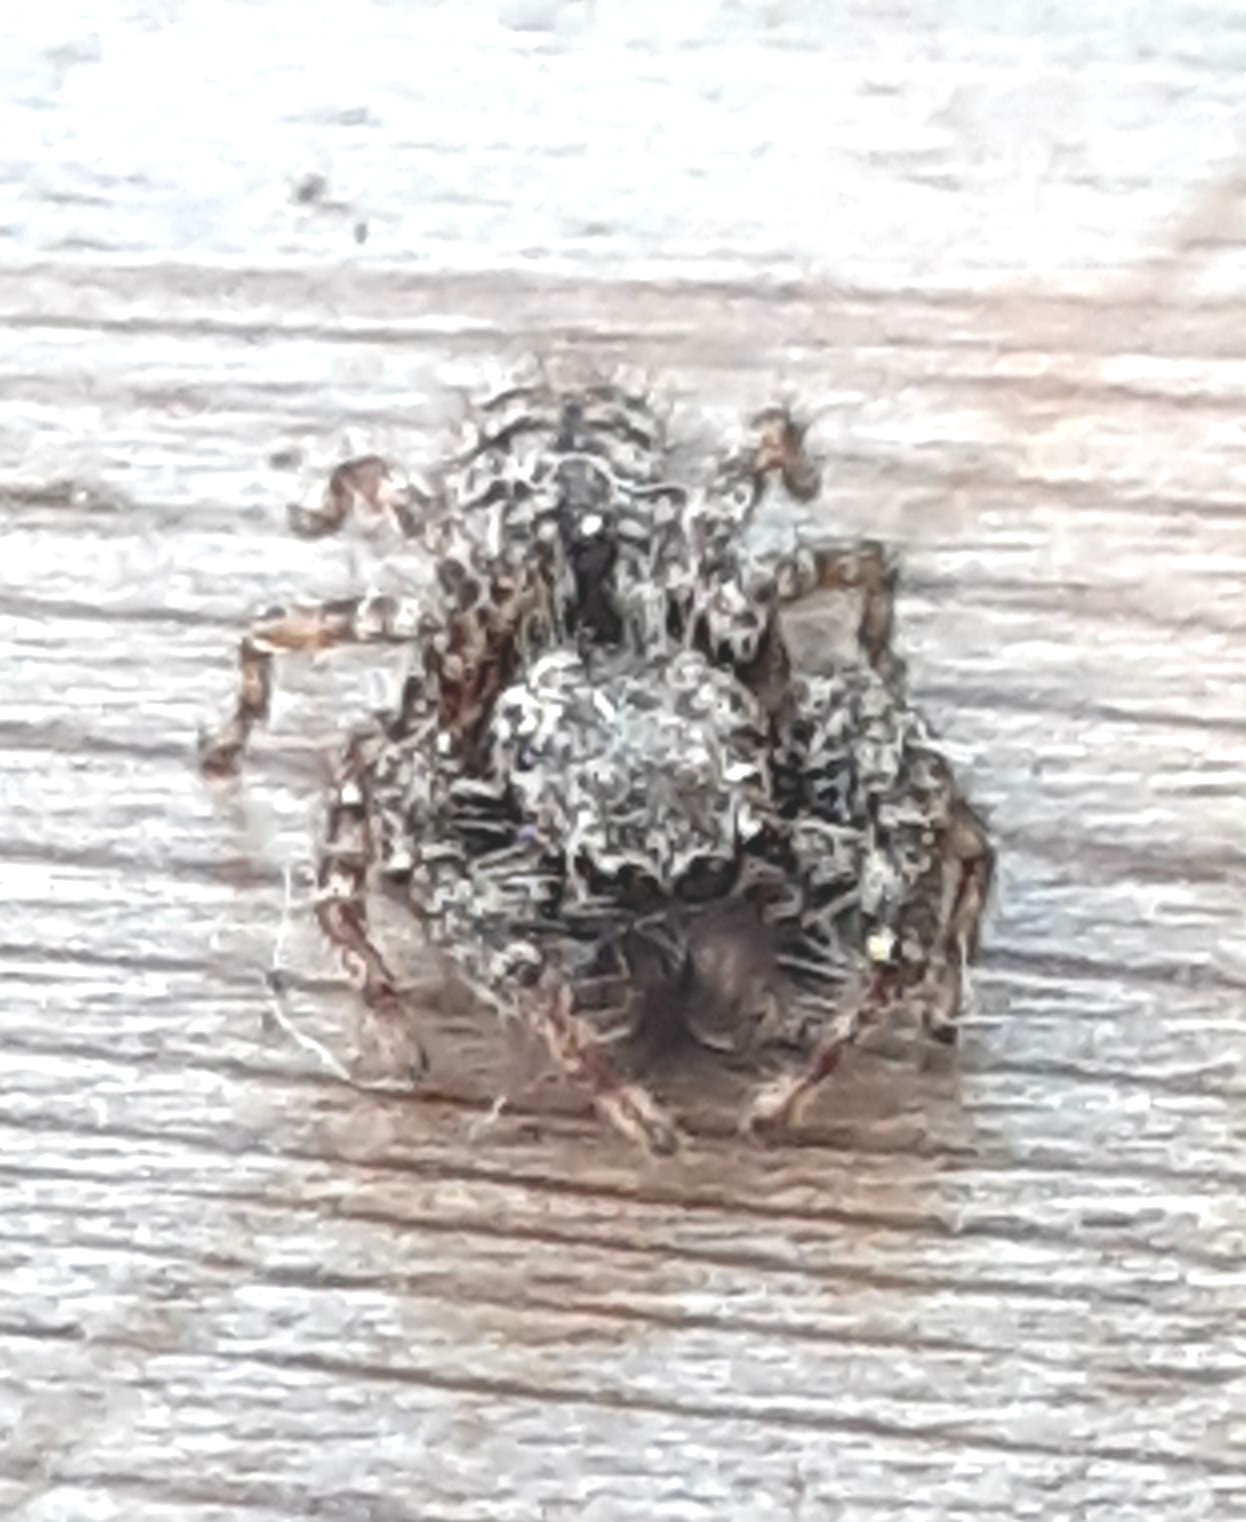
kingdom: Animalia
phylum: Arthropoda
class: Arachnida
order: Araneae
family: Salticidae
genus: Marpissa
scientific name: Marpissa muscosa
